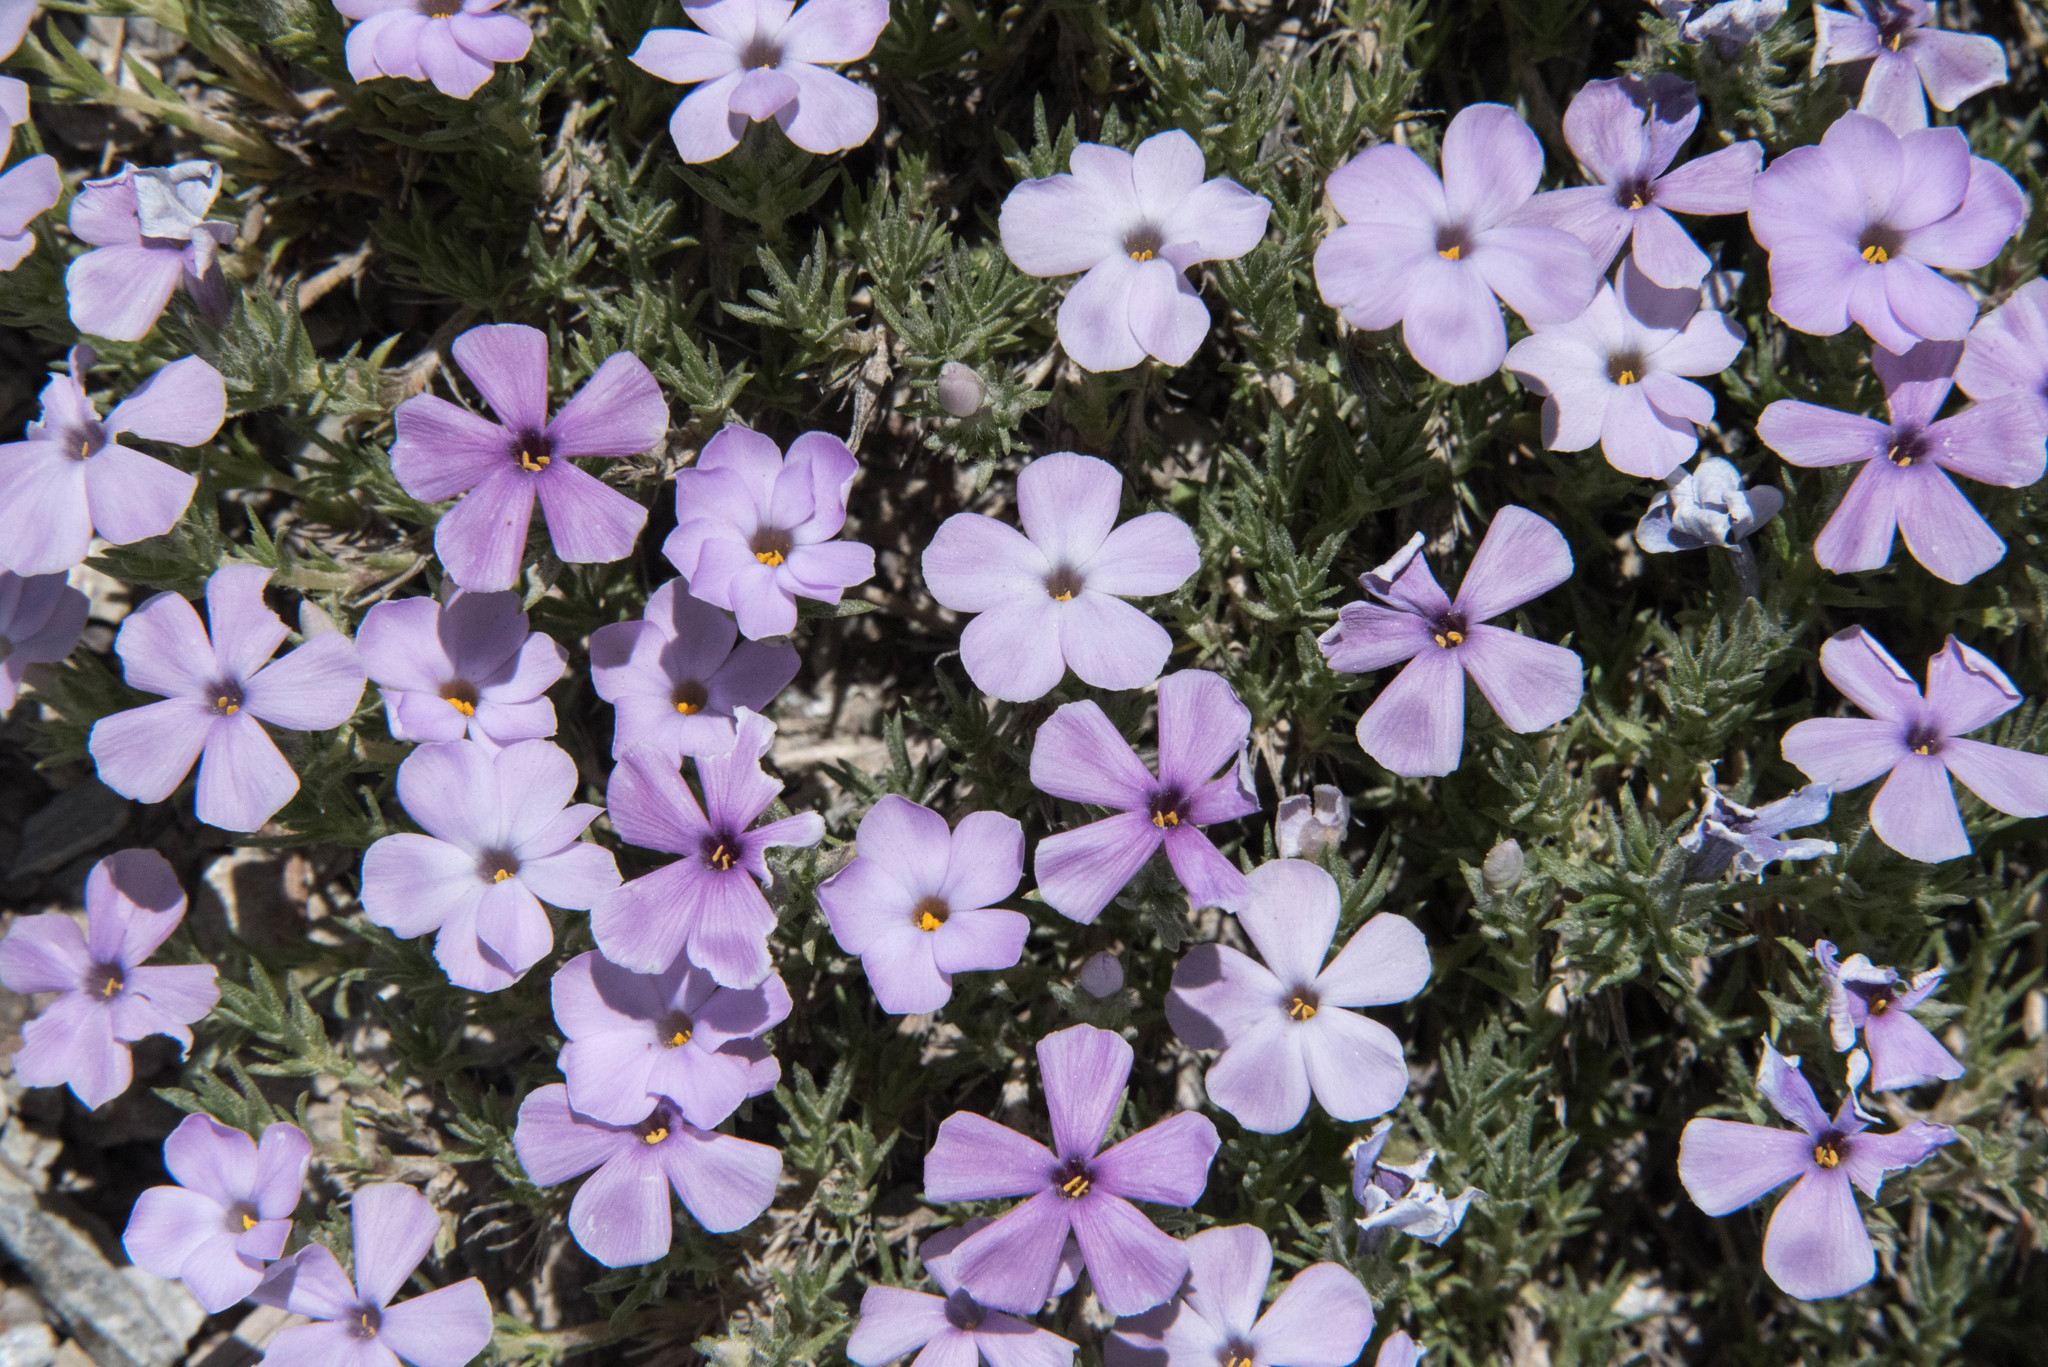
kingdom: Plantae
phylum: Tracheophyta
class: Magnoliopsida
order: Ericales
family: Polemoniaceae
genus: Phlox
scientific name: Phlox diffusa
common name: Mat phlox
